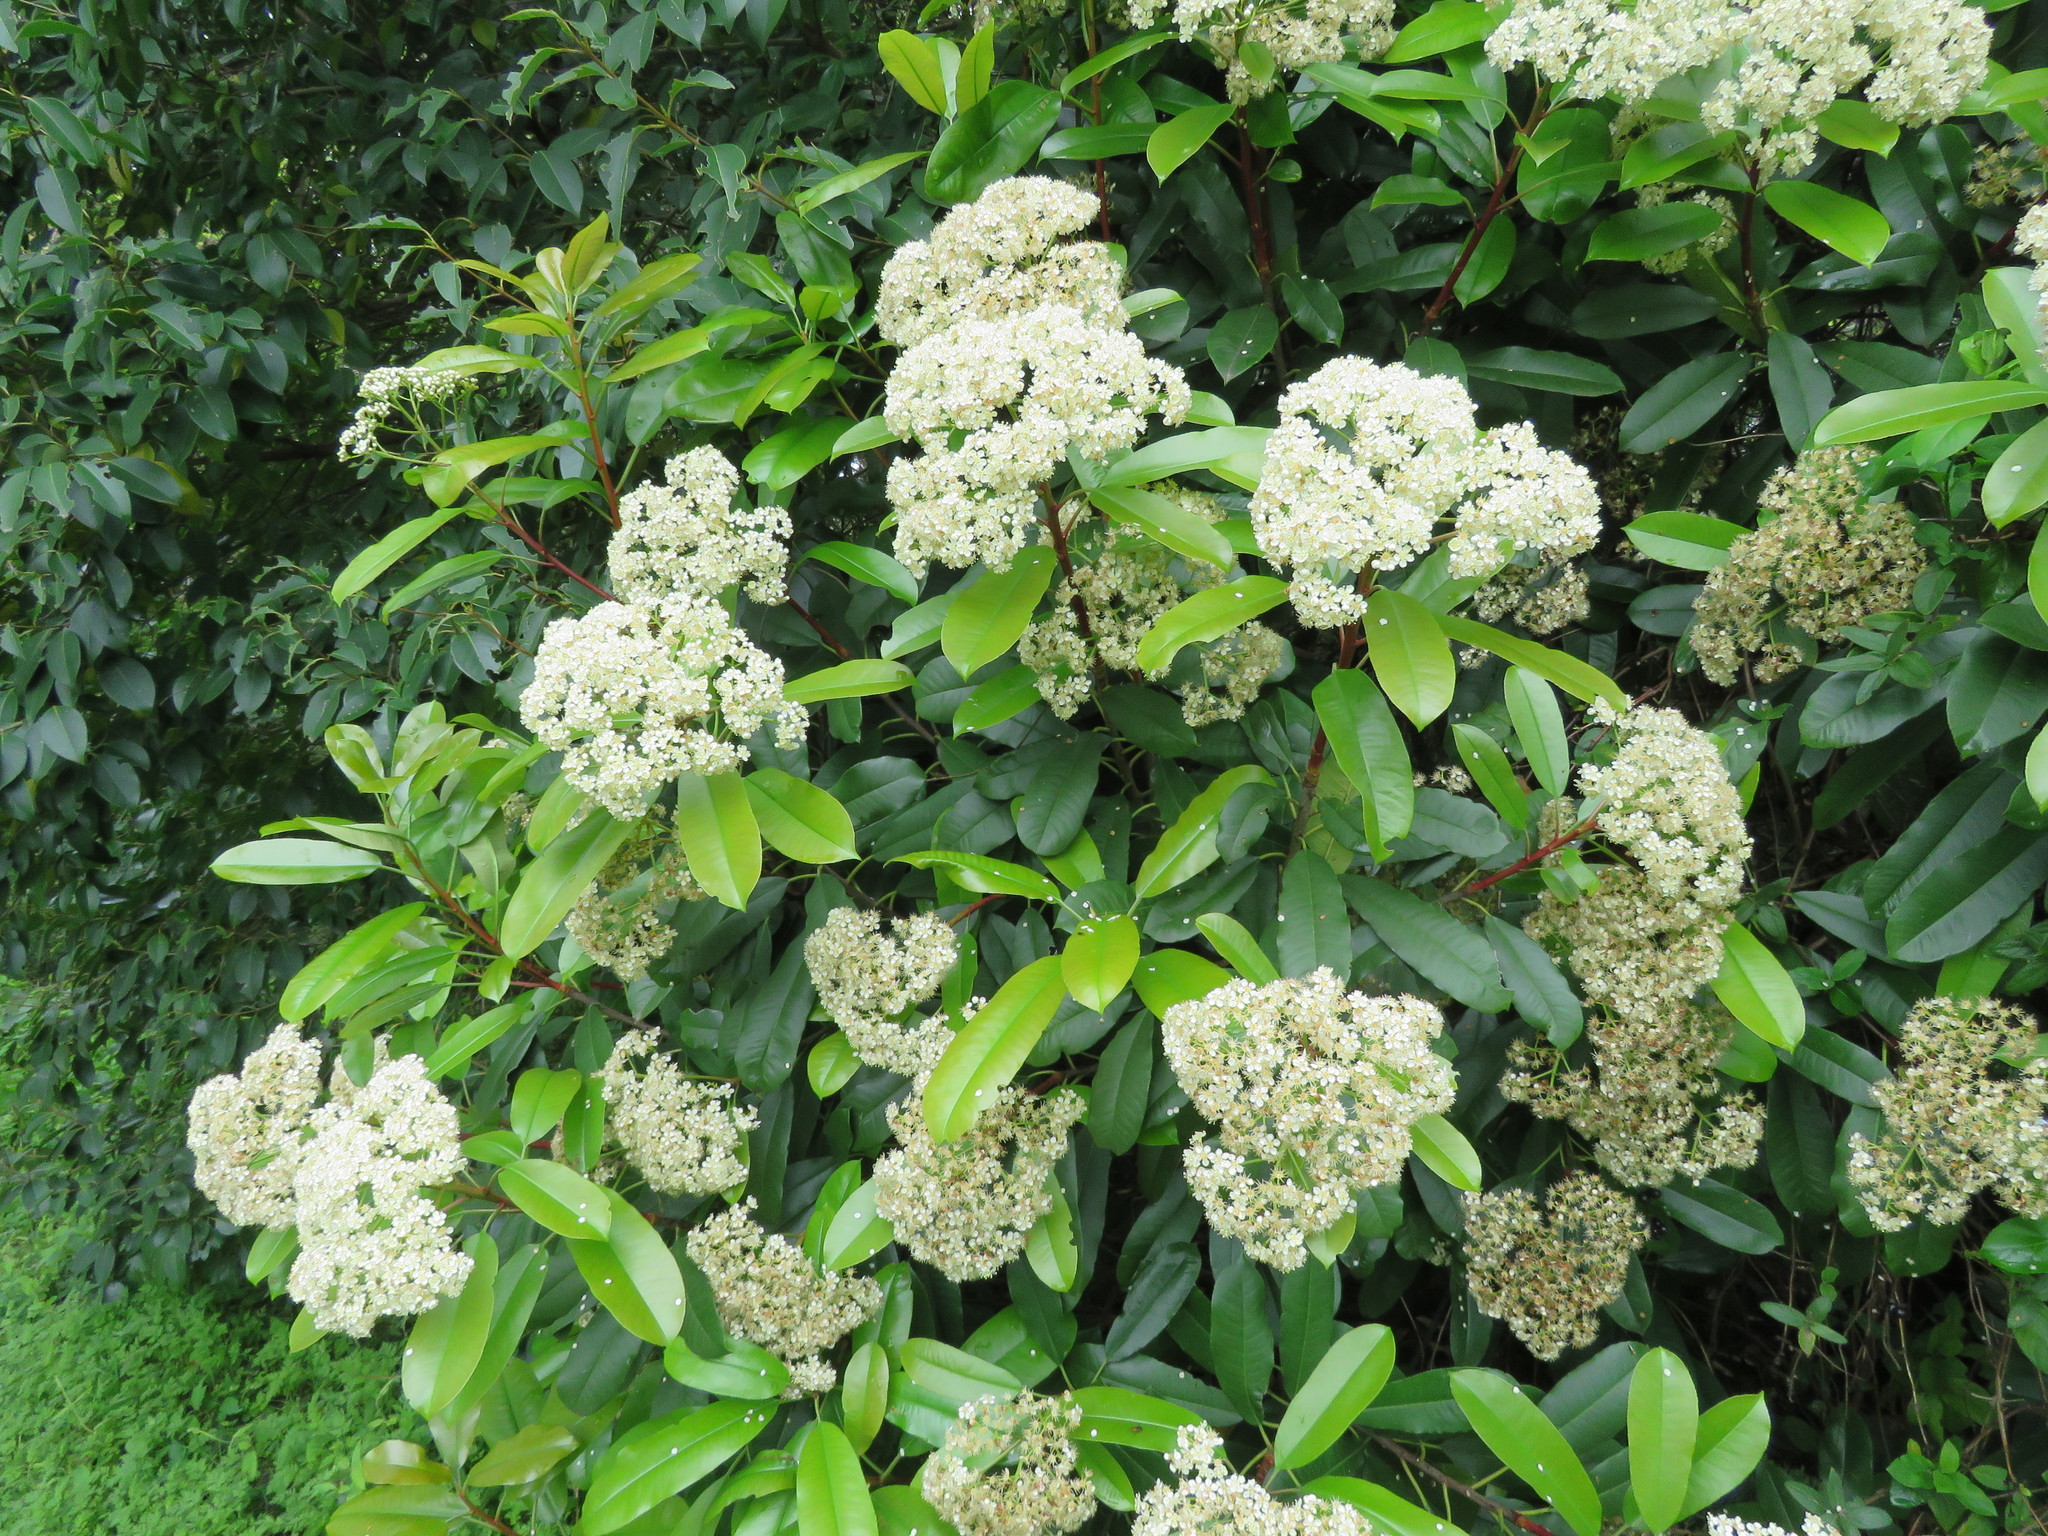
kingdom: Plantae
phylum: Tracheophyta
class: Magnoliopsida
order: Rosales
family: Rosaceae
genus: Photinia
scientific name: Photinia serratifolia
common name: Taiwanese photinia
